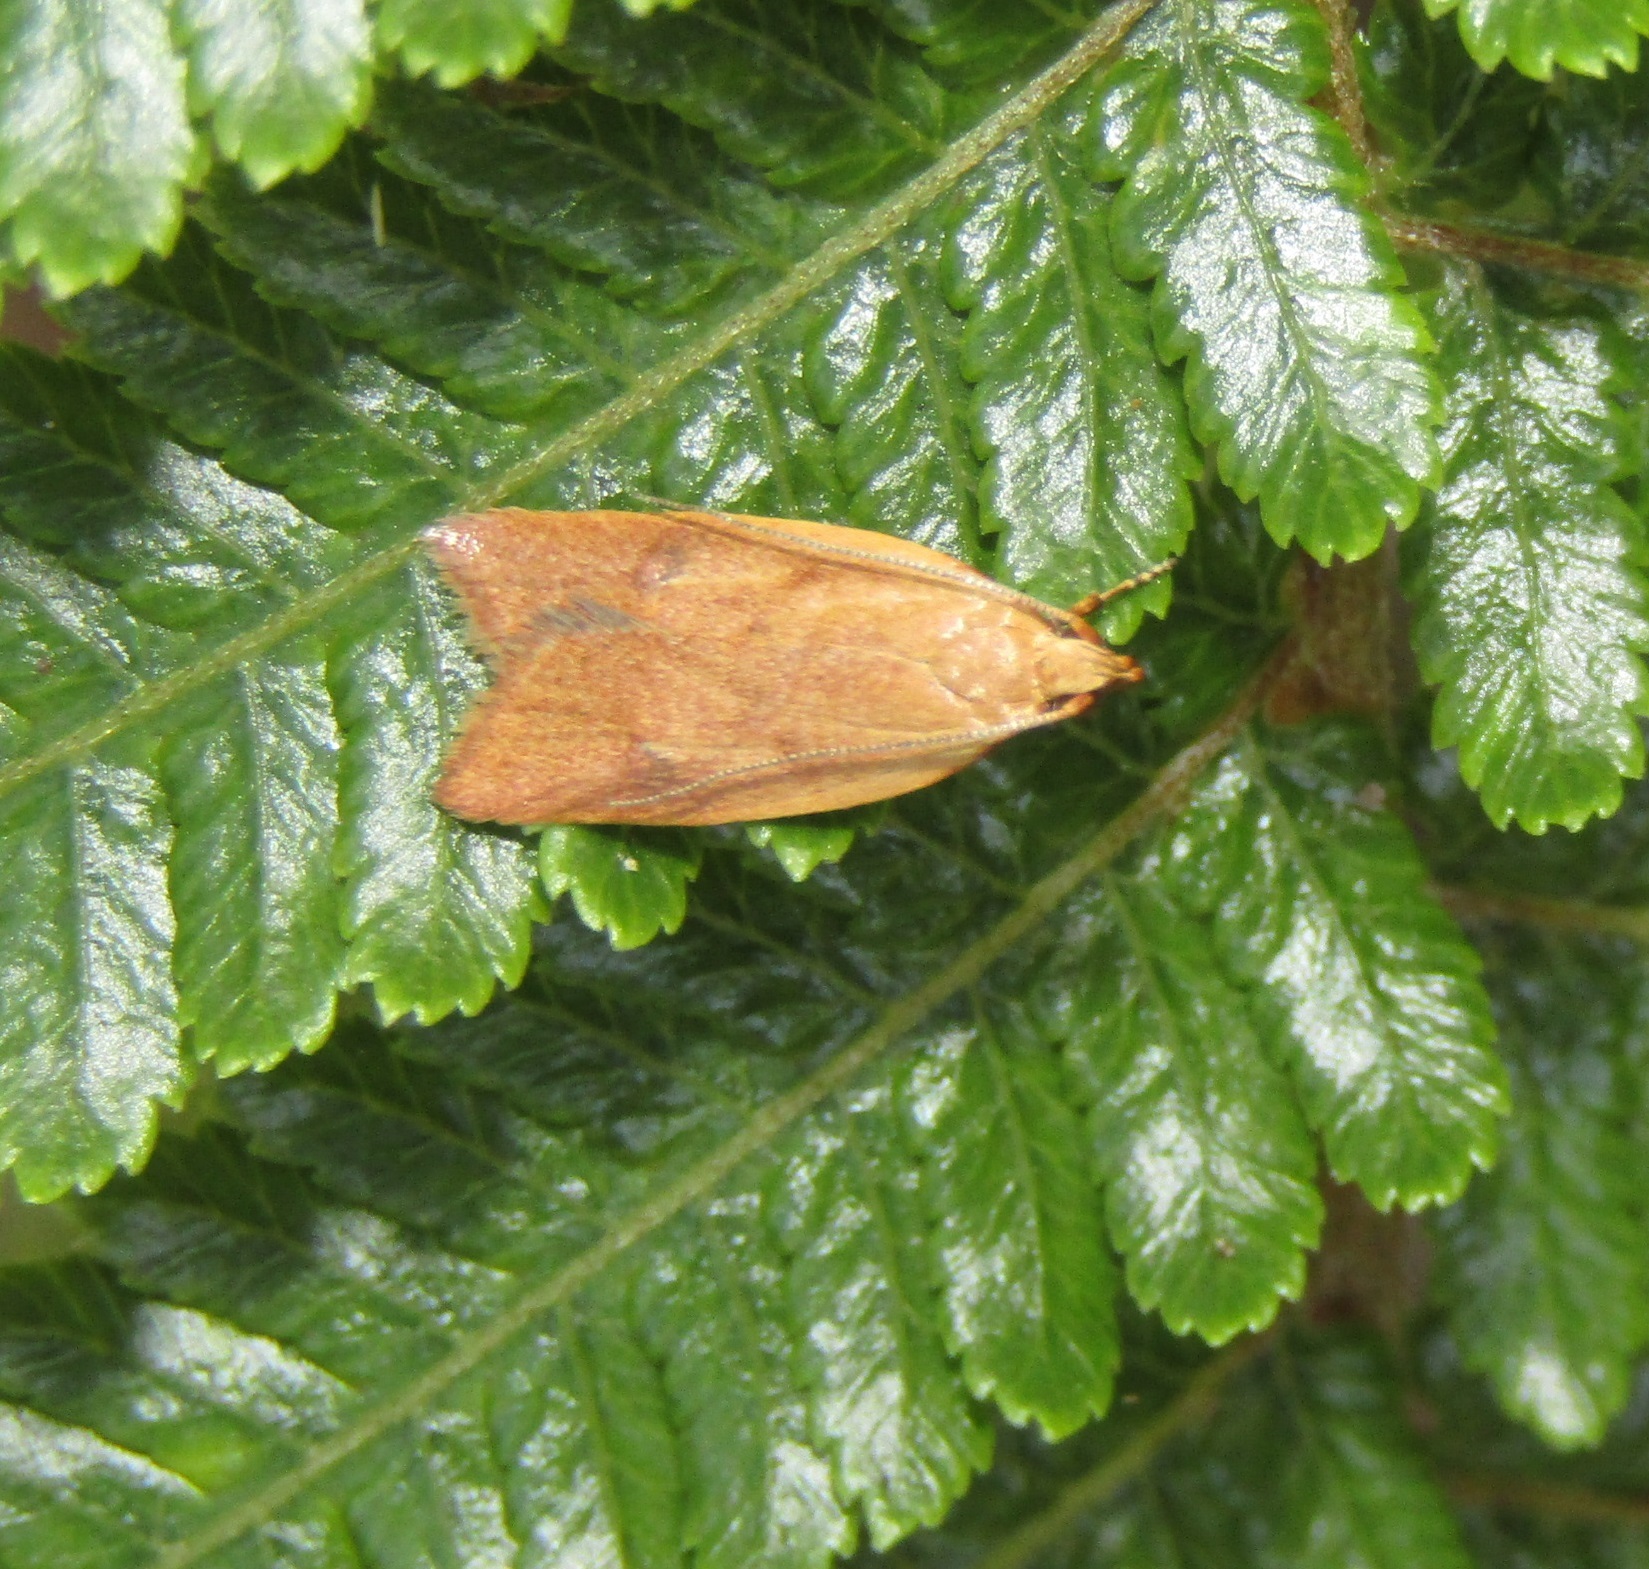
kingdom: Animalia
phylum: Arthropoda
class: Insecta
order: Lepidoptera
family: Oecophoridae
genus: Gymnobathra
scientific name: Gymnobathra sarcoxantha
